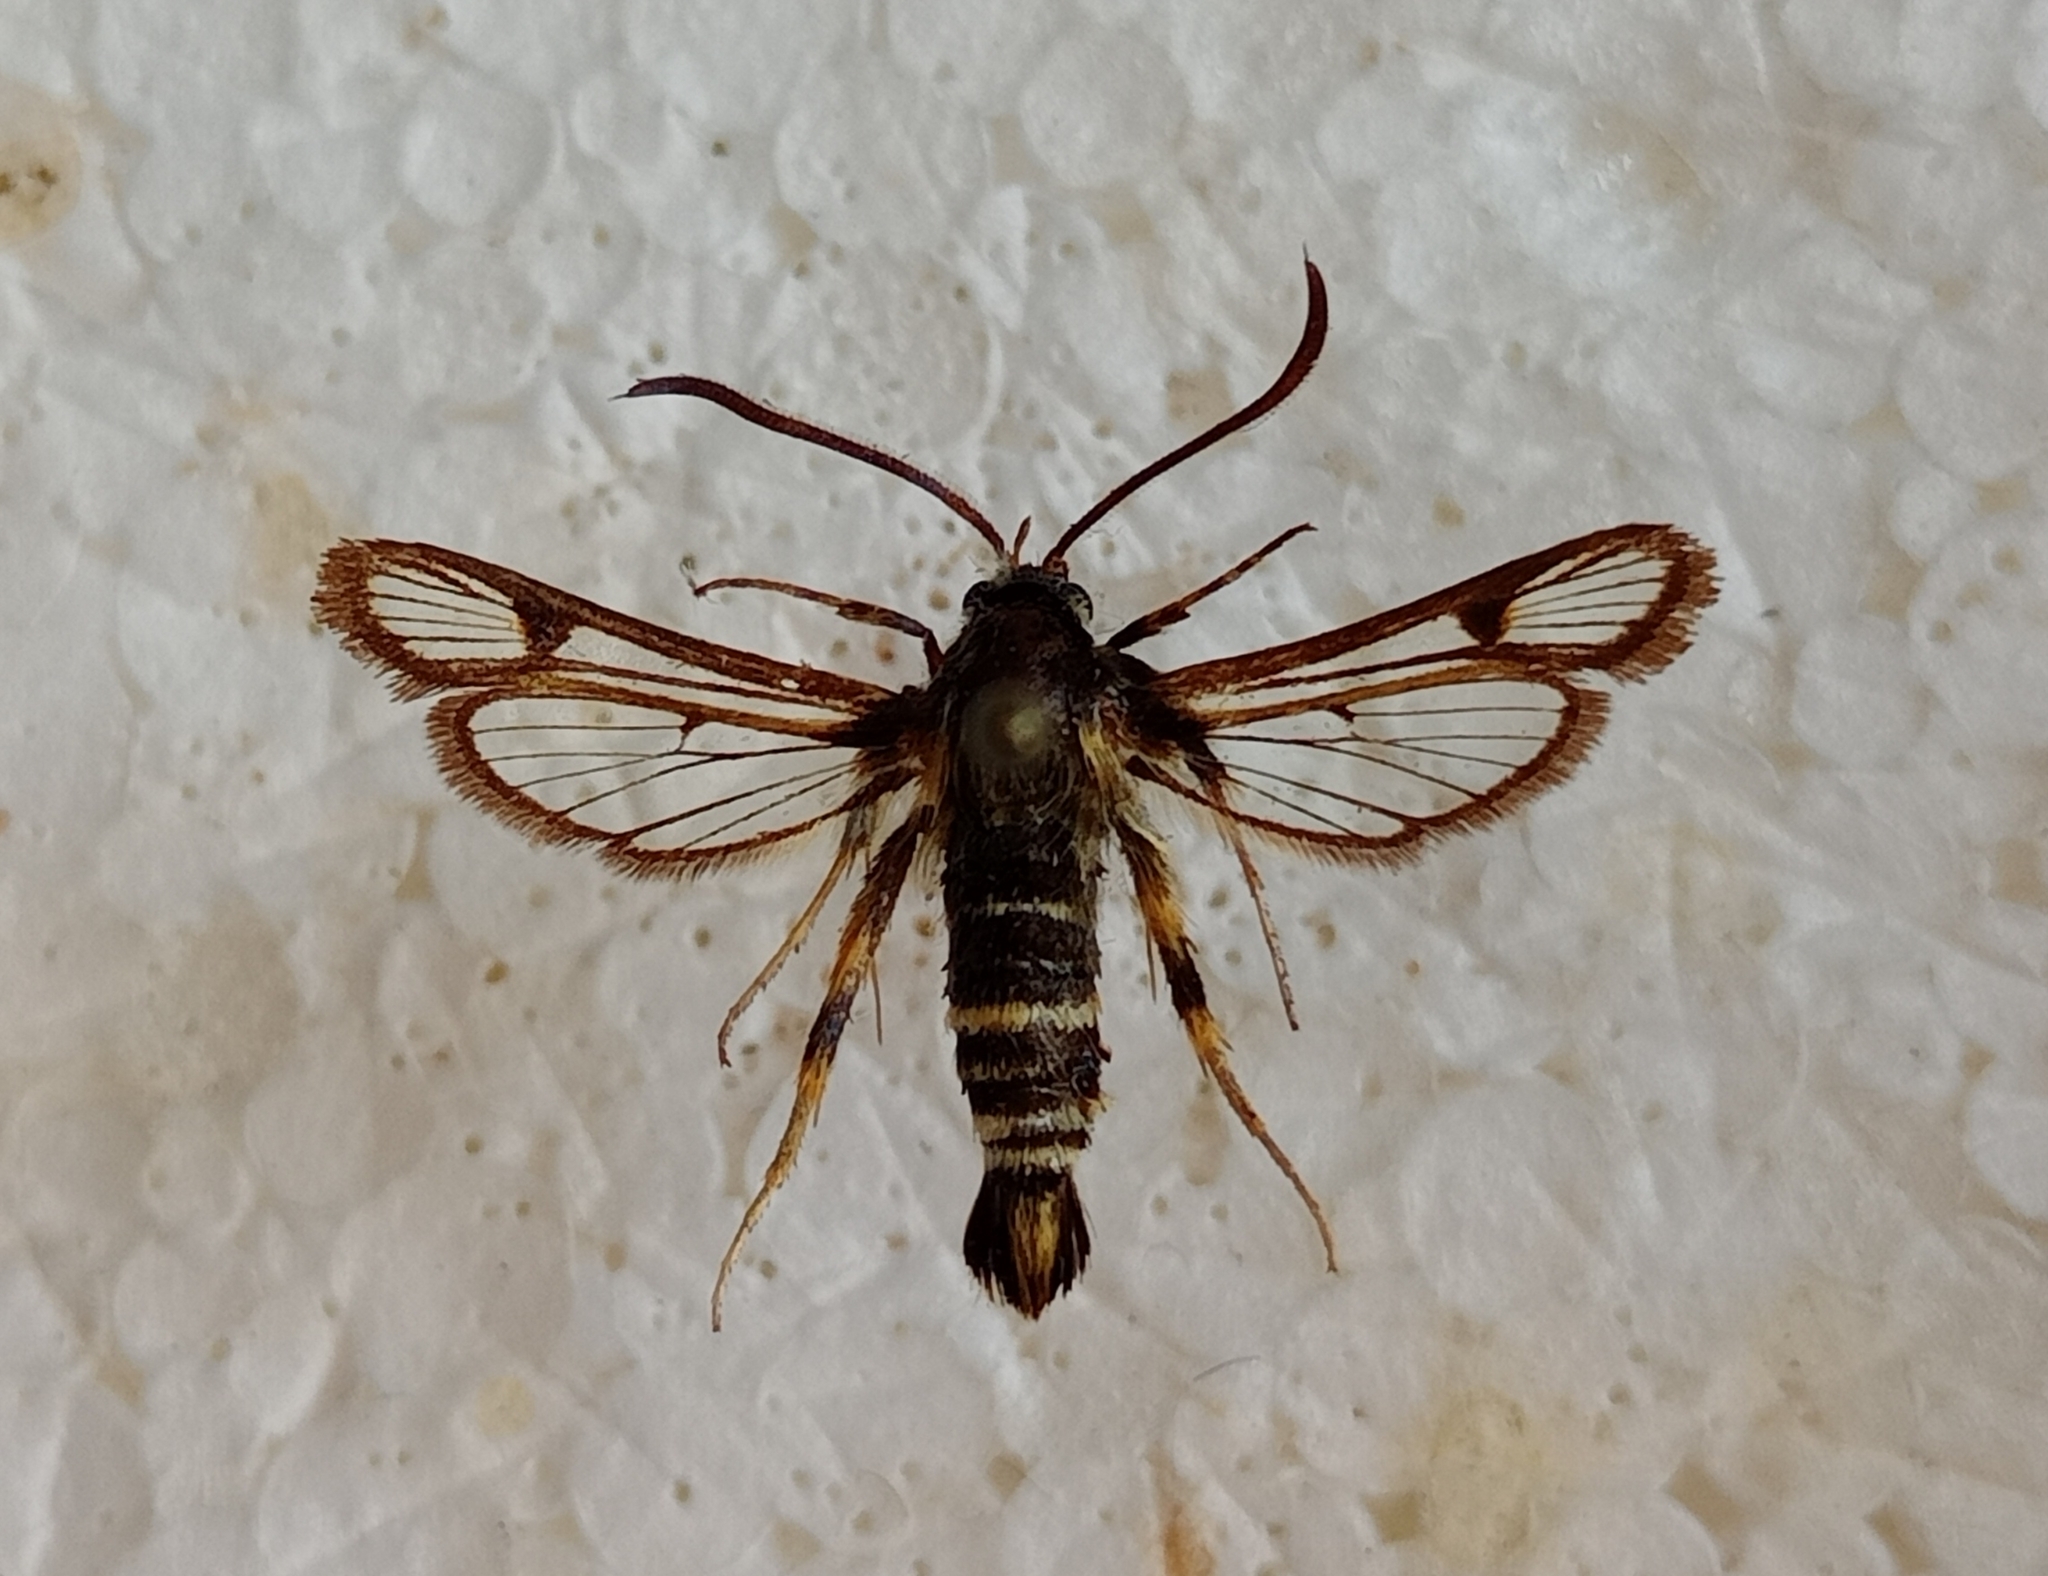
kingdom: Animalia
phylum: Arthropoda
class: Insecta
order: Lepidoptera
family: Sesiidae
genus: Bembecia
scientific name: Bembecia puella
